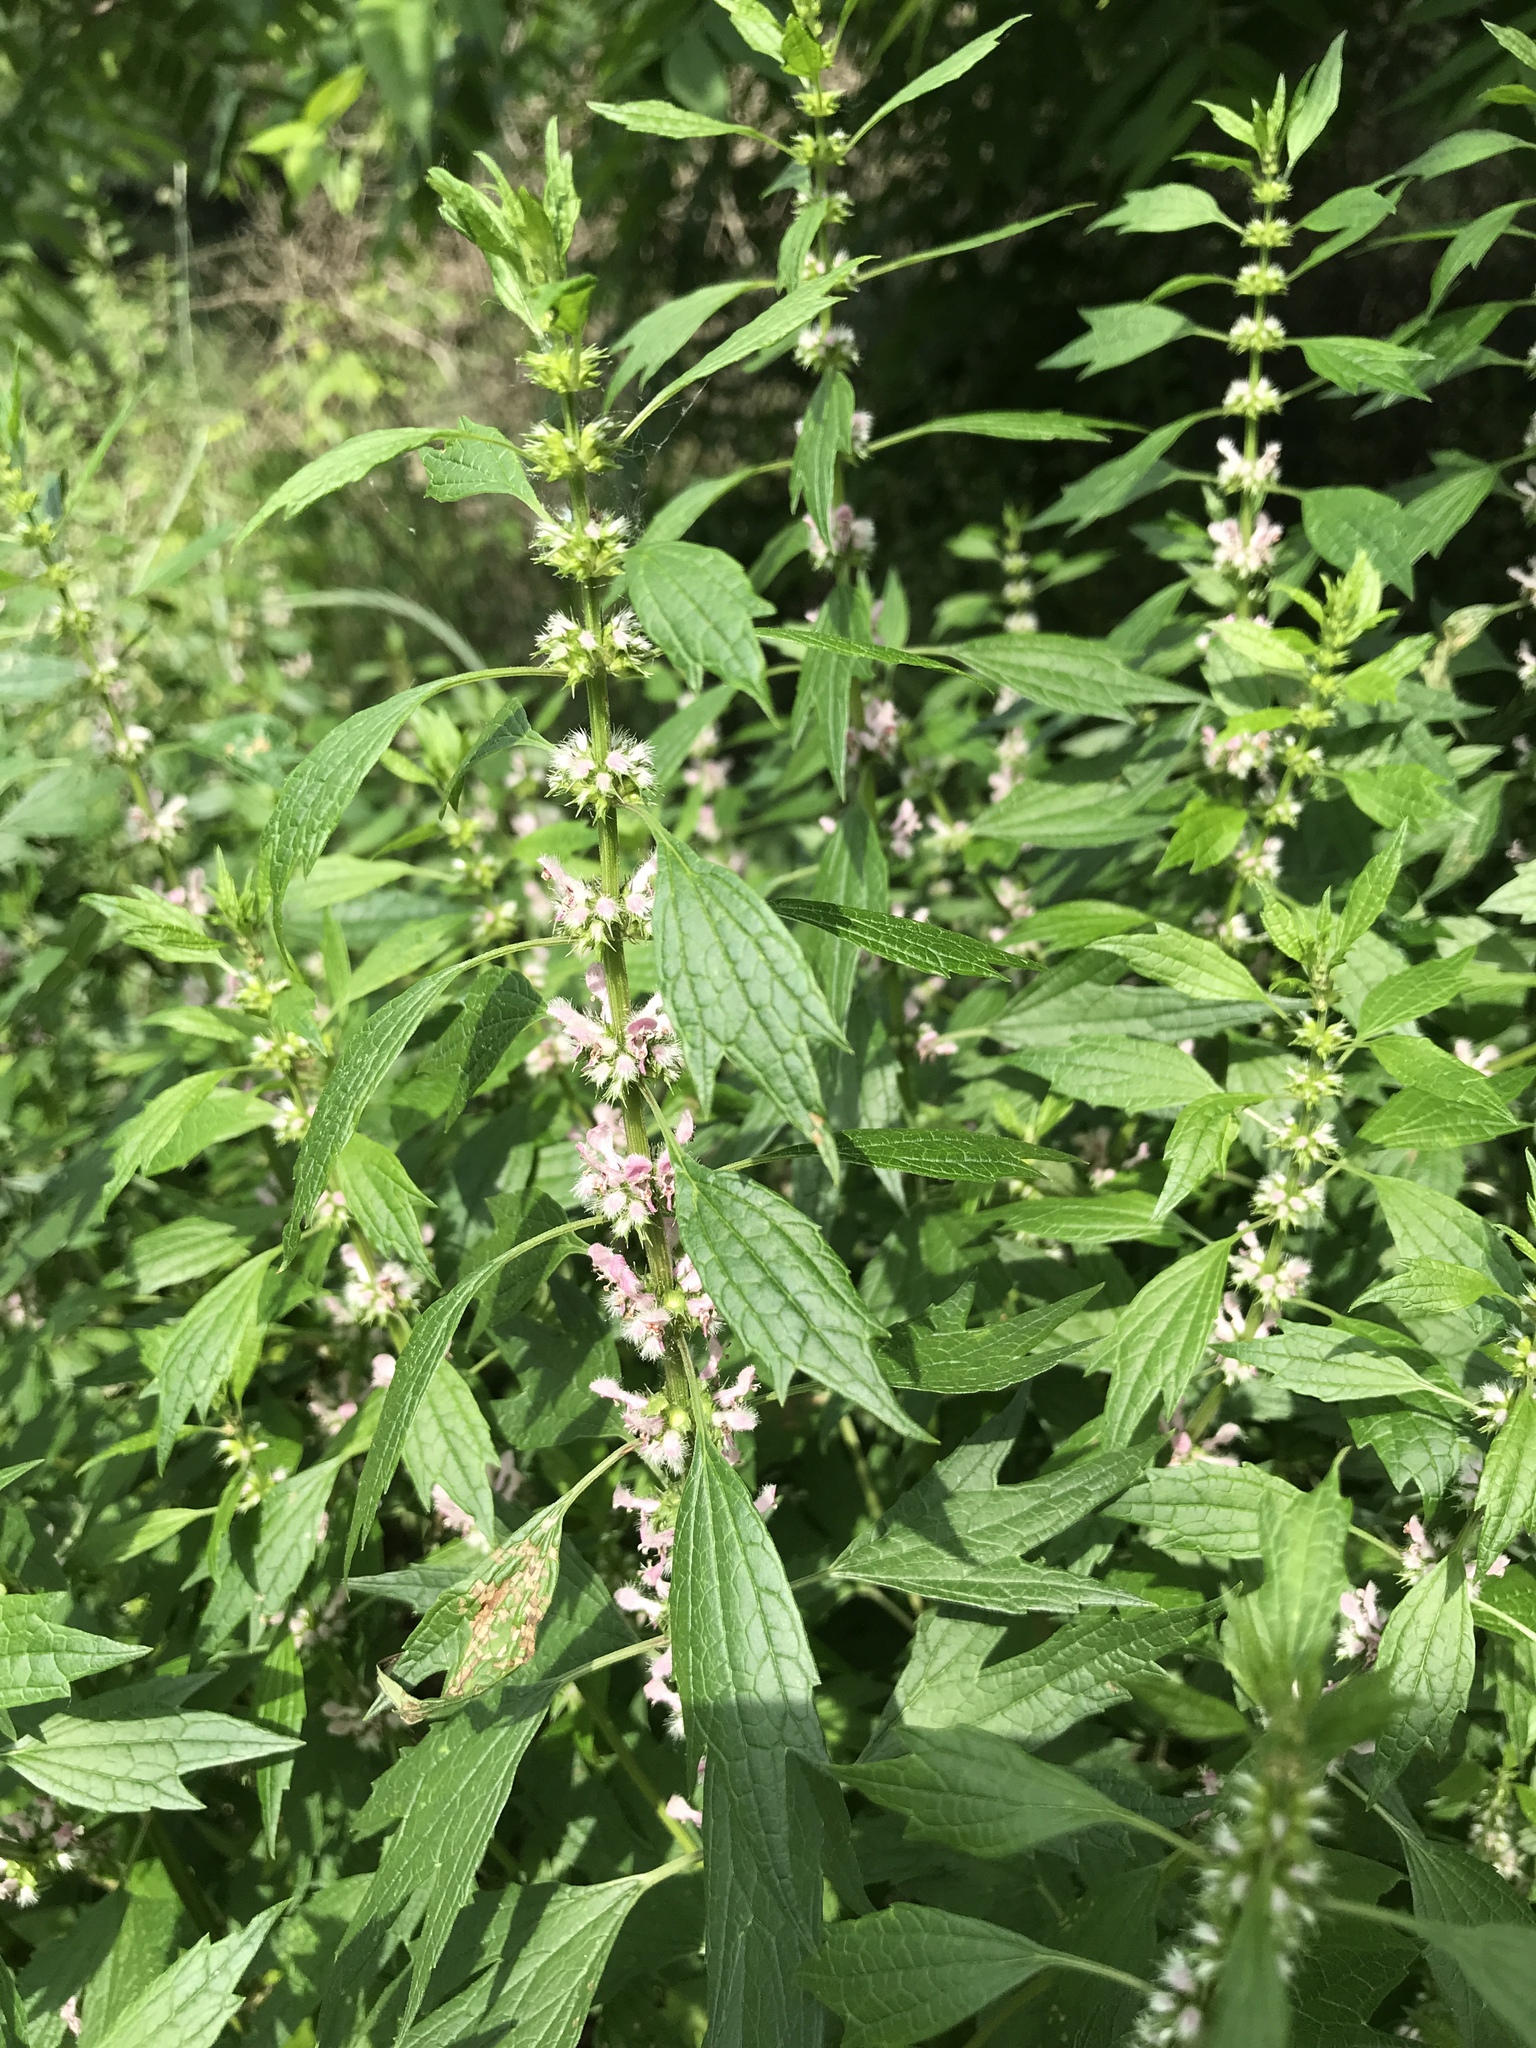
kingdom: Plantae
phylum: Tracheophyta
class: Magnoliopsida
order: Lamiales
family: Lamiaceae
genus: Leonurus
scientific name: Leonurus cardiaca
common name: Motherwort
